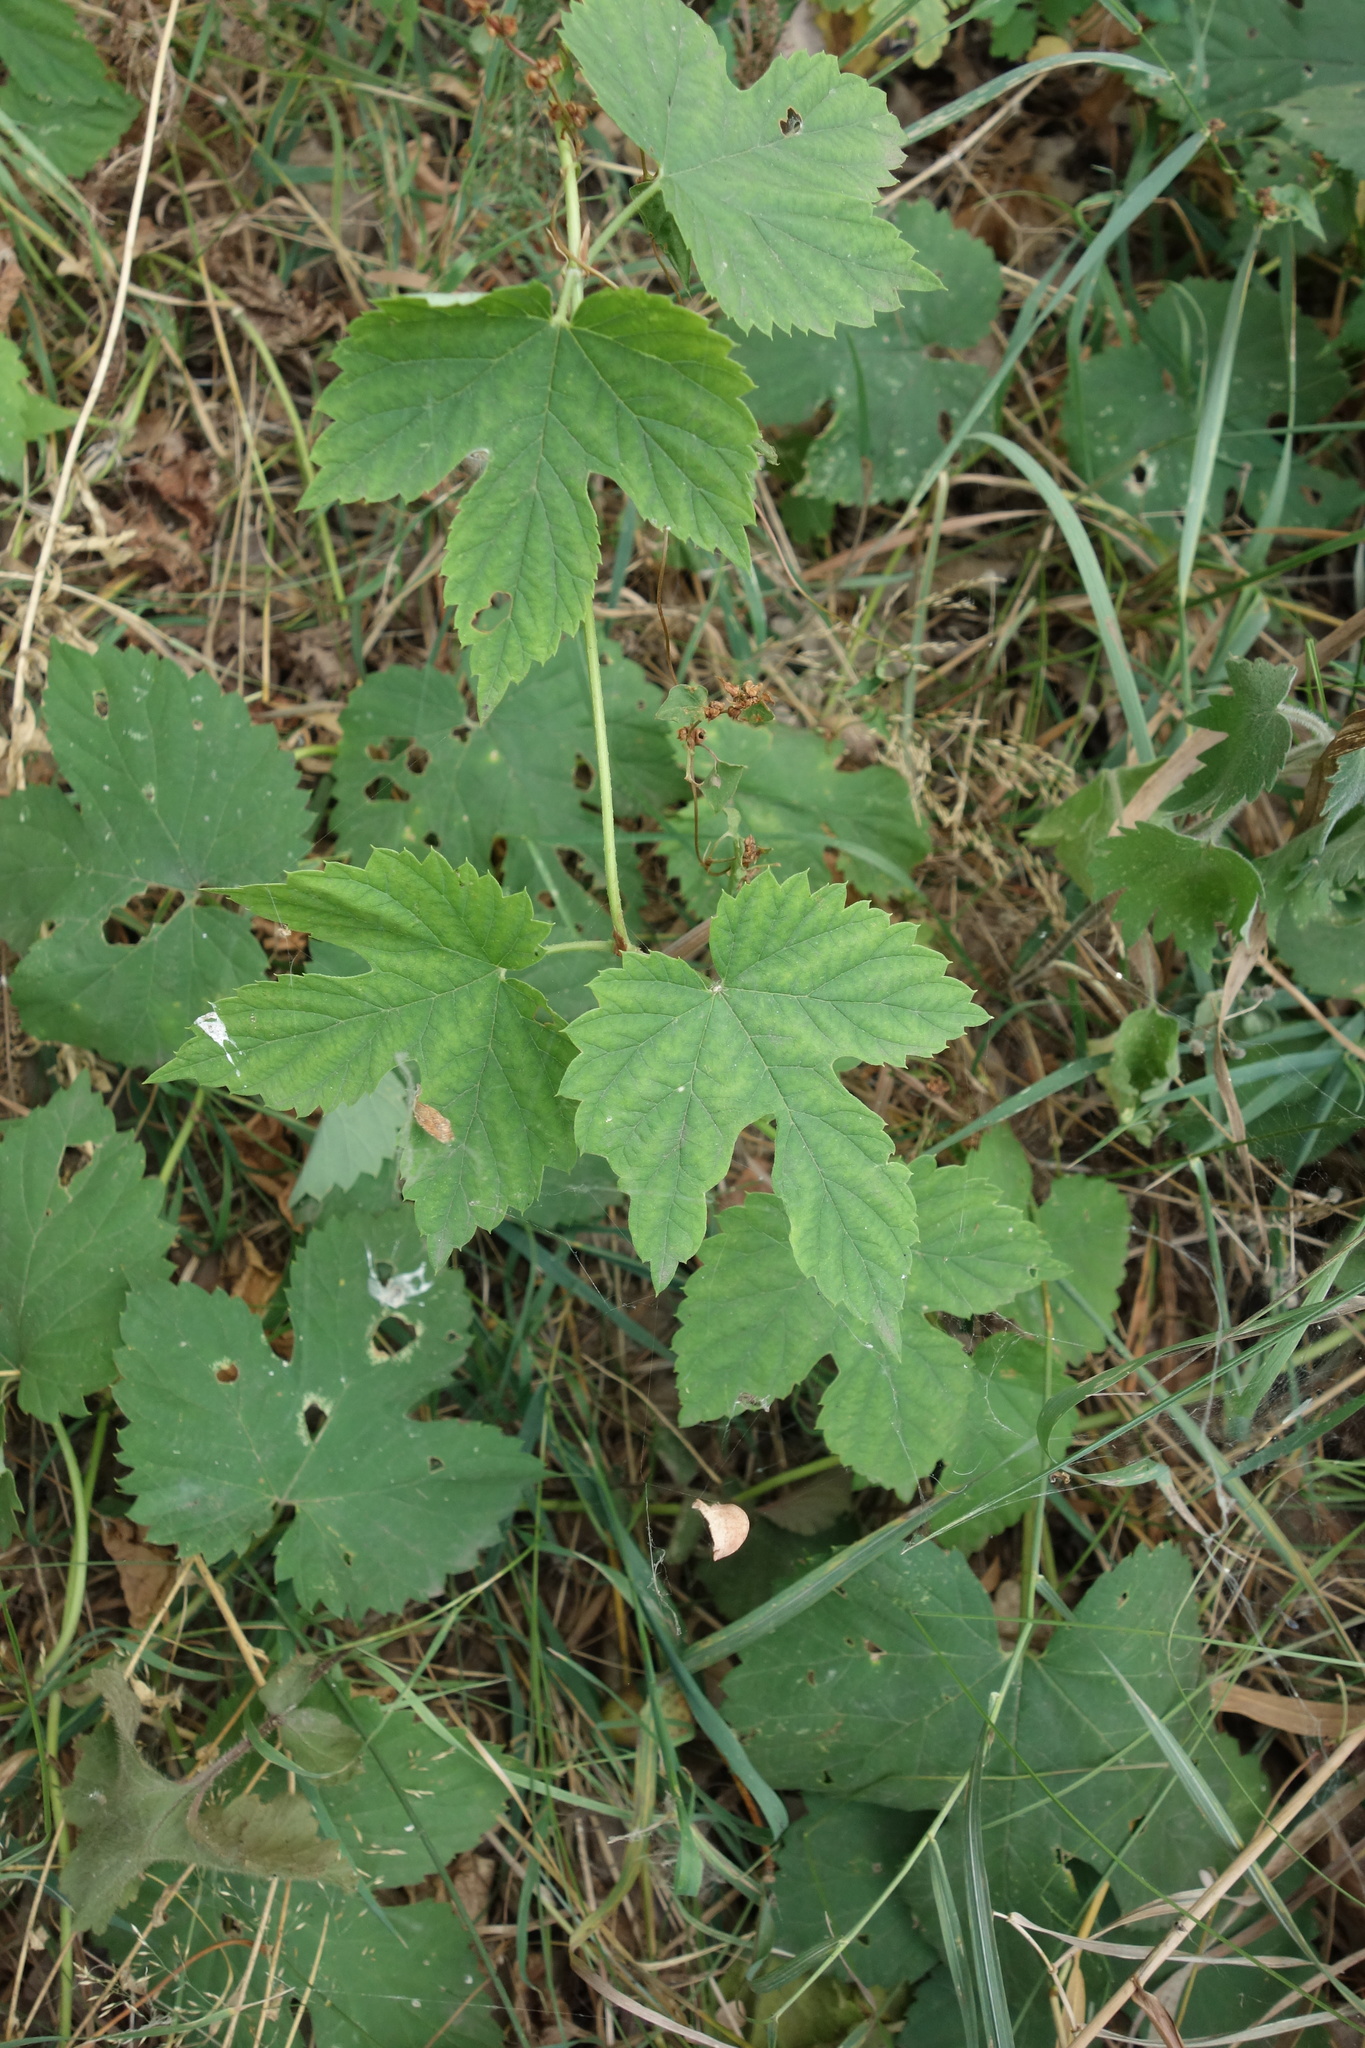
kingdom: Plantae
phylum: Tracheophyta
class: Magnoliopsida
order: Rosales
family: Cannabaceae
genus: Humulus
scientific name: Humulus lupulus
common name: Hop
